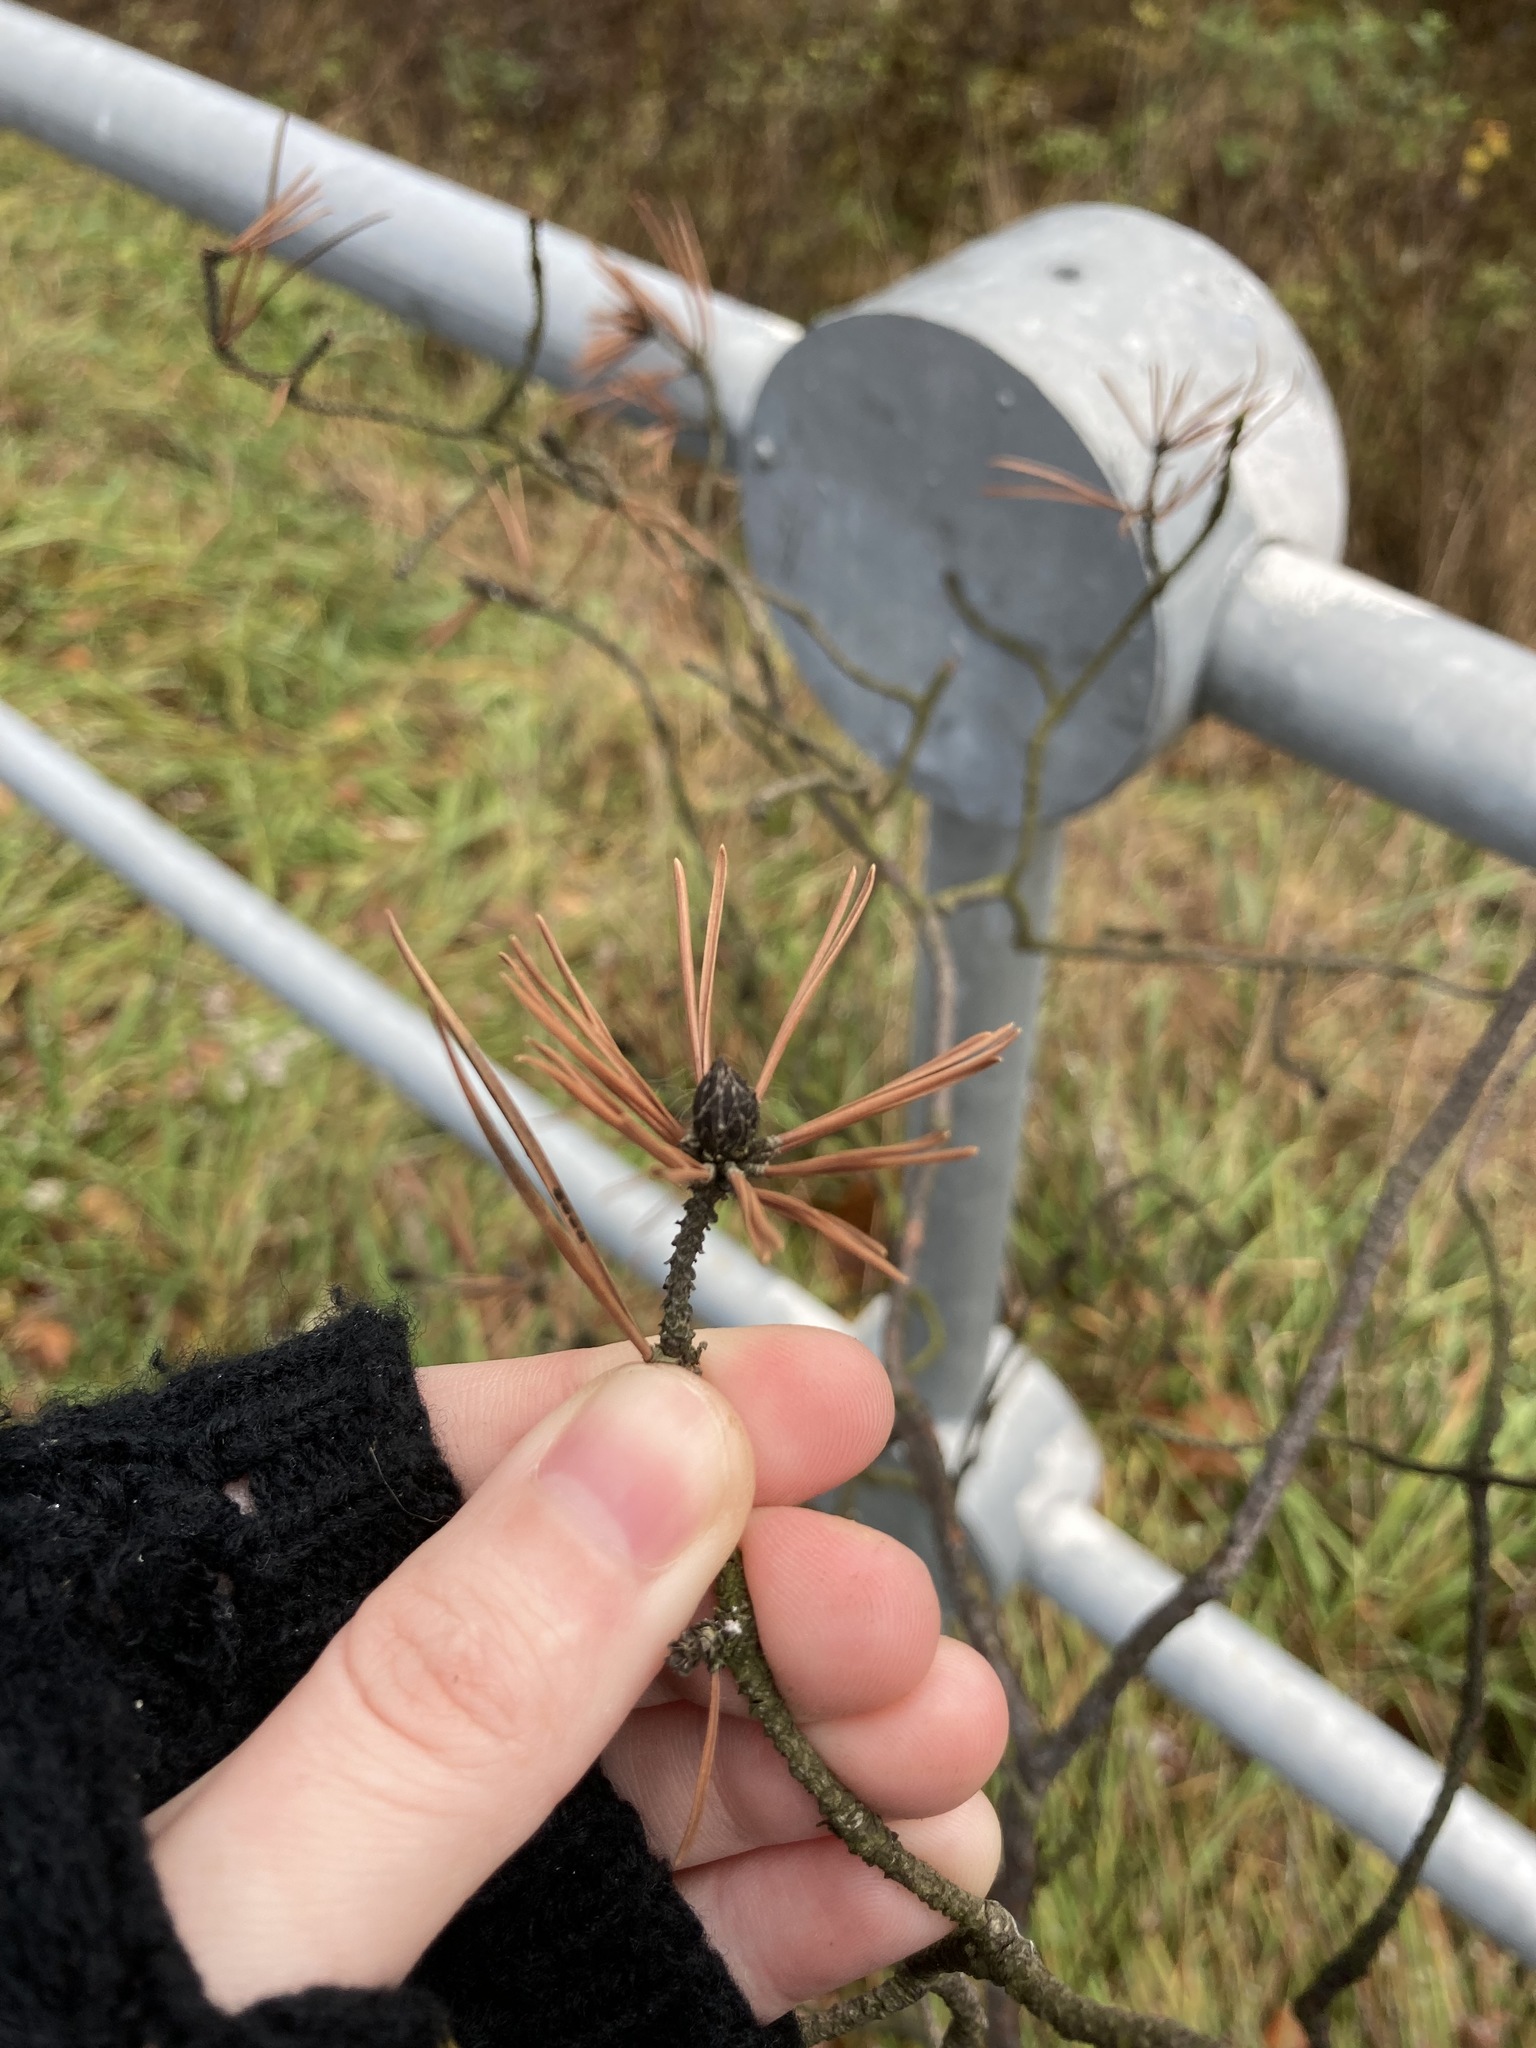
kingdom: Plantae
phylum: Tracheophyta
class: Pinopsida
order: Pinales
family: Pinaceae
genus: Pinus
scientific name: Pinus sylvestris
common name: Scots pine
